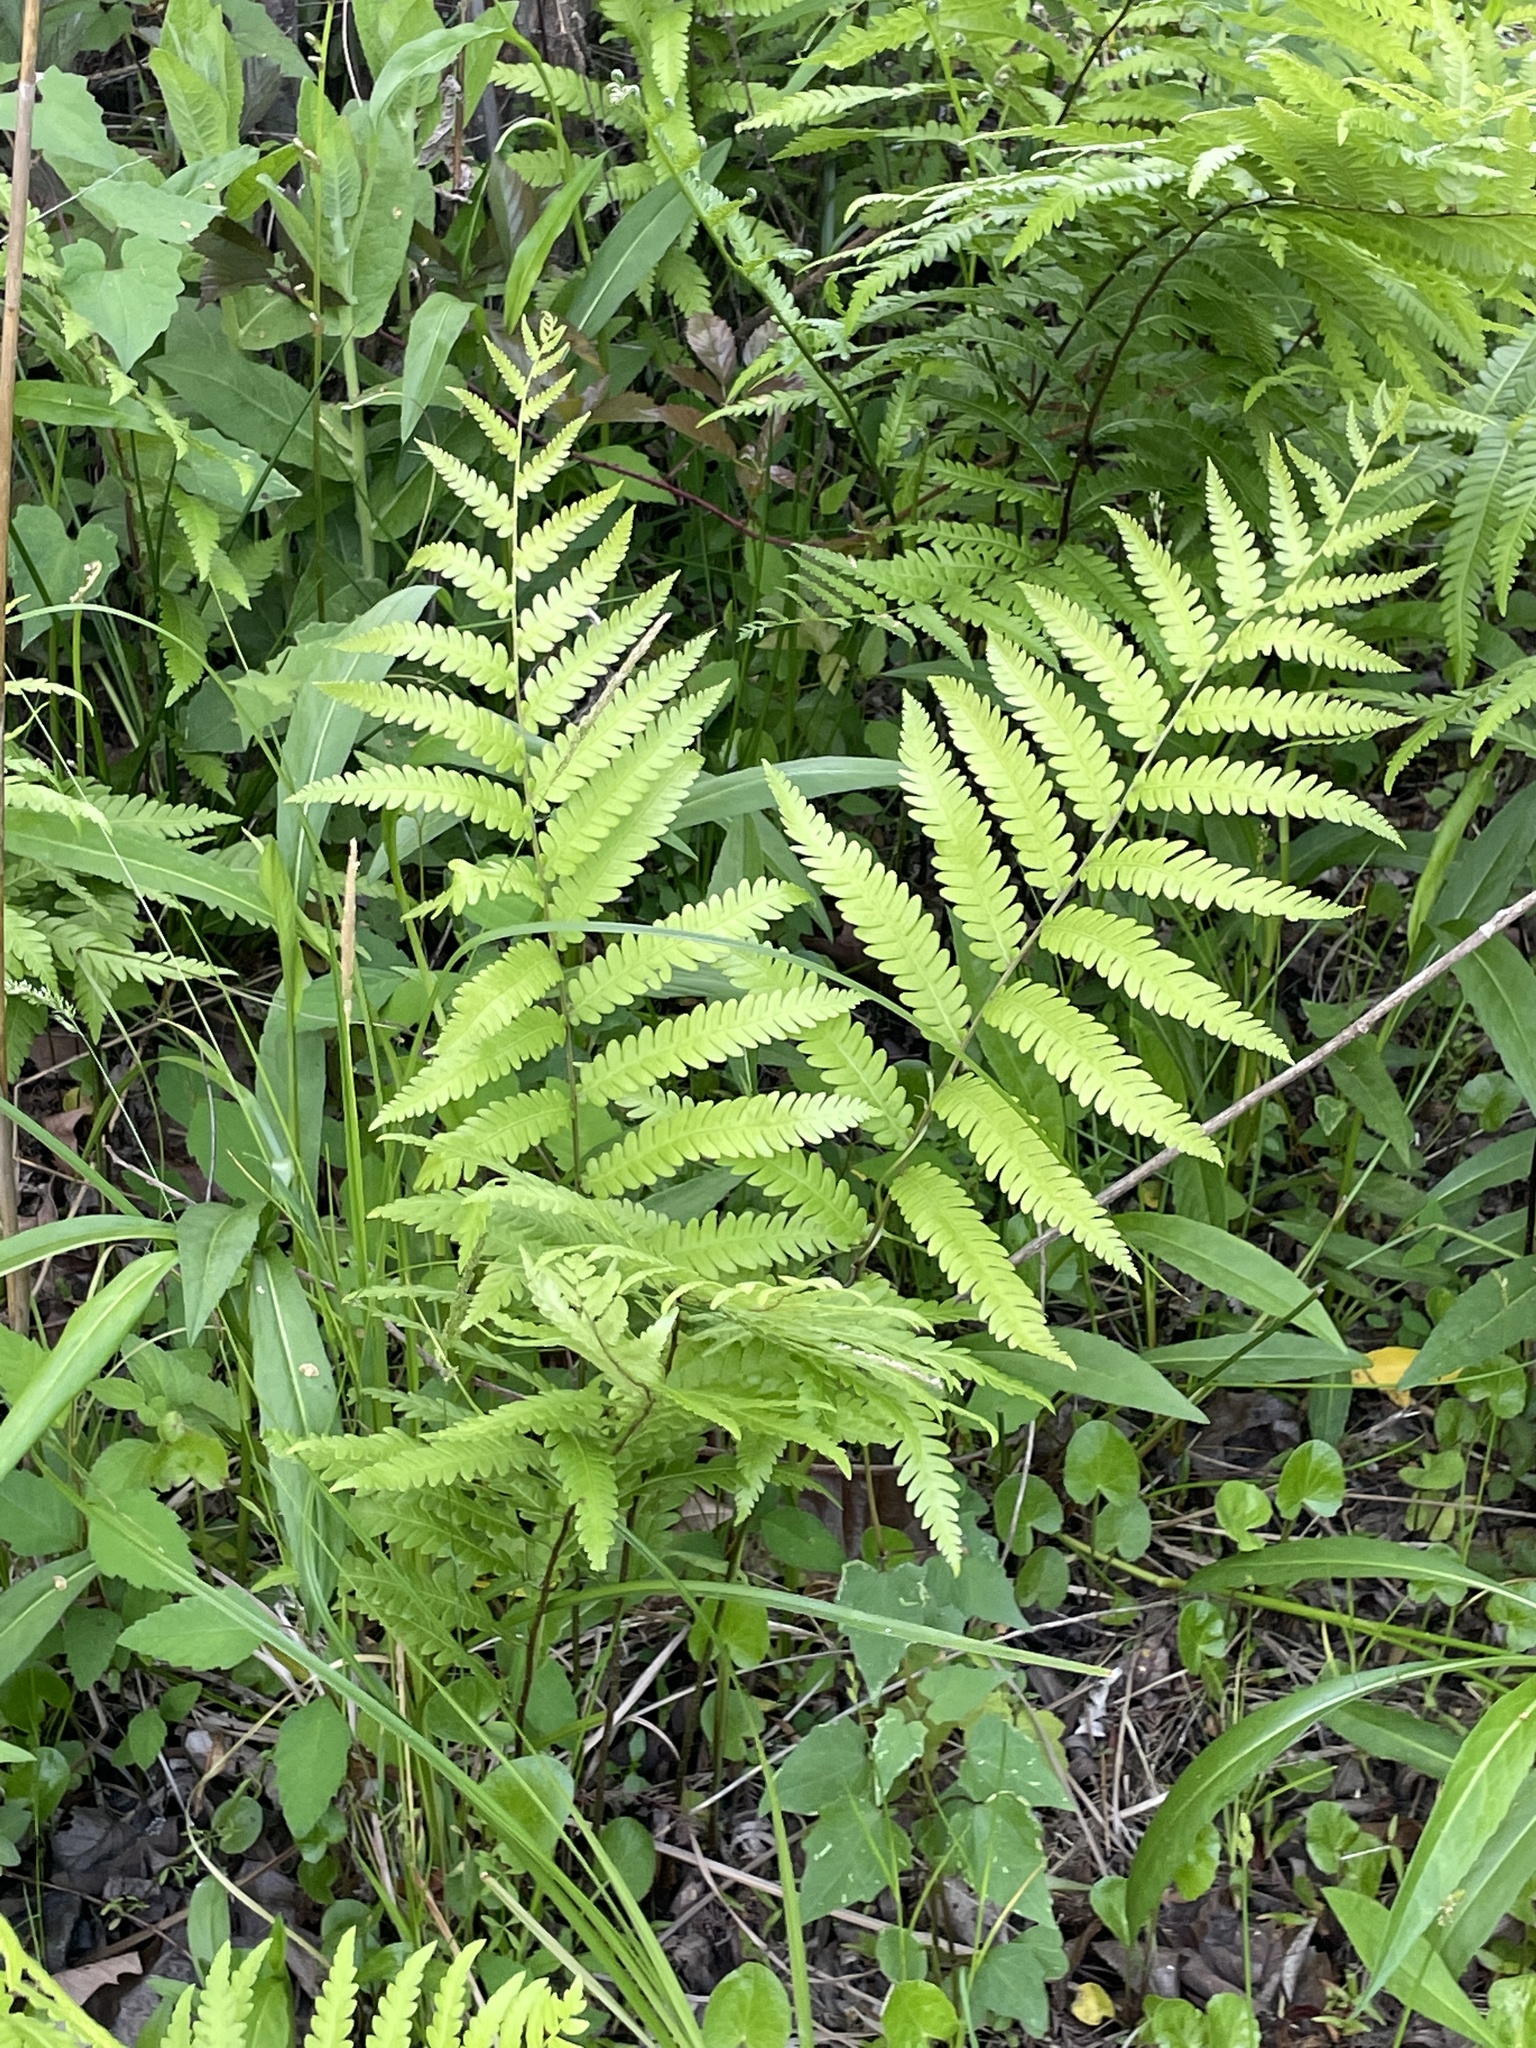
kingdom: Plantae
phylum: Tracheophyta
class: Polypodiopsida
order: Polypodiales
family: Blechnaceae
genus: Anchistea
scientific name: Anchistea virginica
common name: Virginia chain fern
